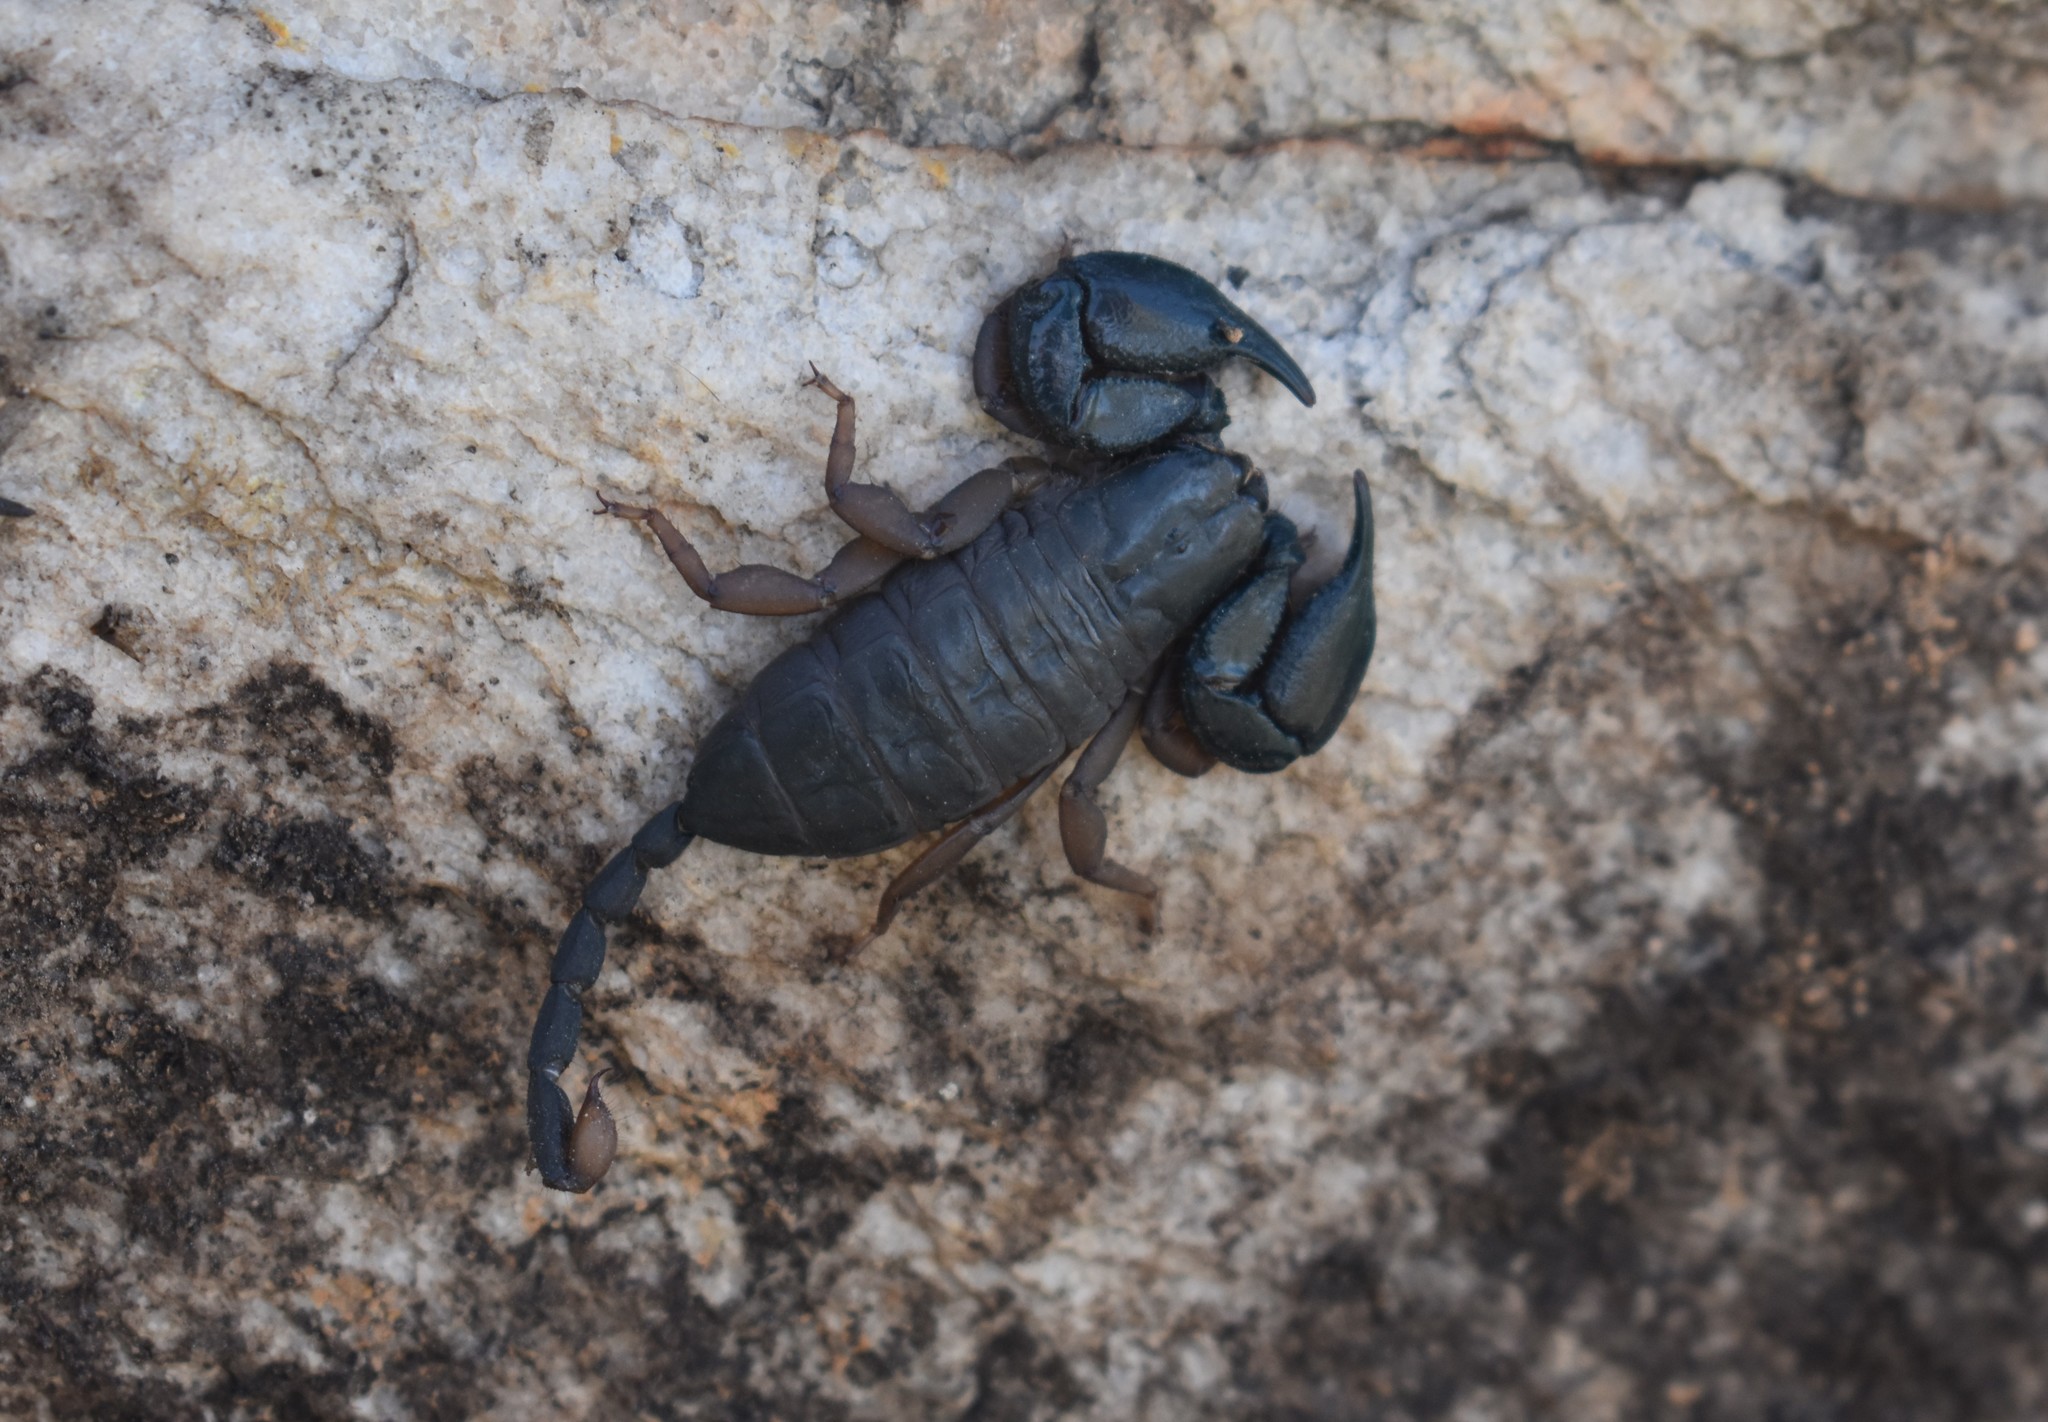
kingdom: Animalia
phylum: Arthropoda
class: Arachnida
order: Scorpiones
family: Hormuridae
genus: Opisthacanthus
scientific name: Opisthacanthus diremptus
